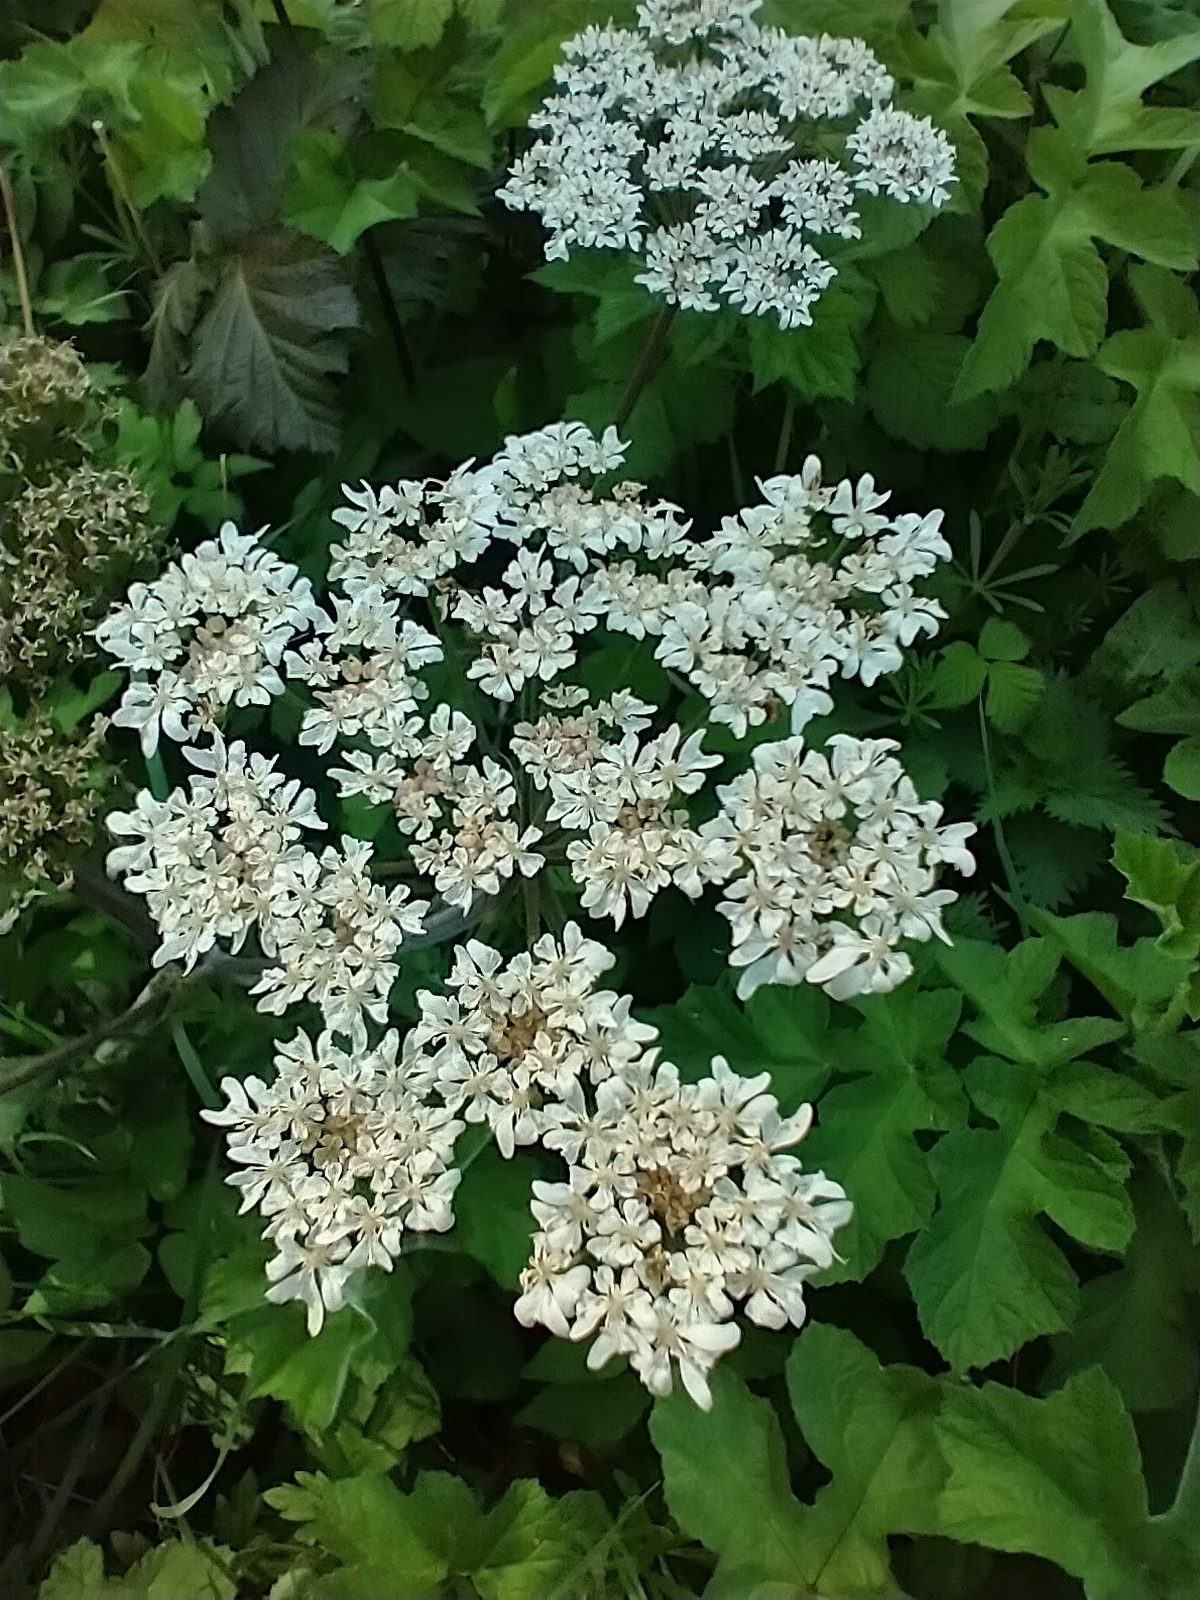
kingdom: Plantae
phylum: Tracheophyta
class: Magnoliopsida
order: Apiales
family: Apiaceae
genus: Heracleum
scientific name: Heracleum sphondylium
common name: Hogweed
